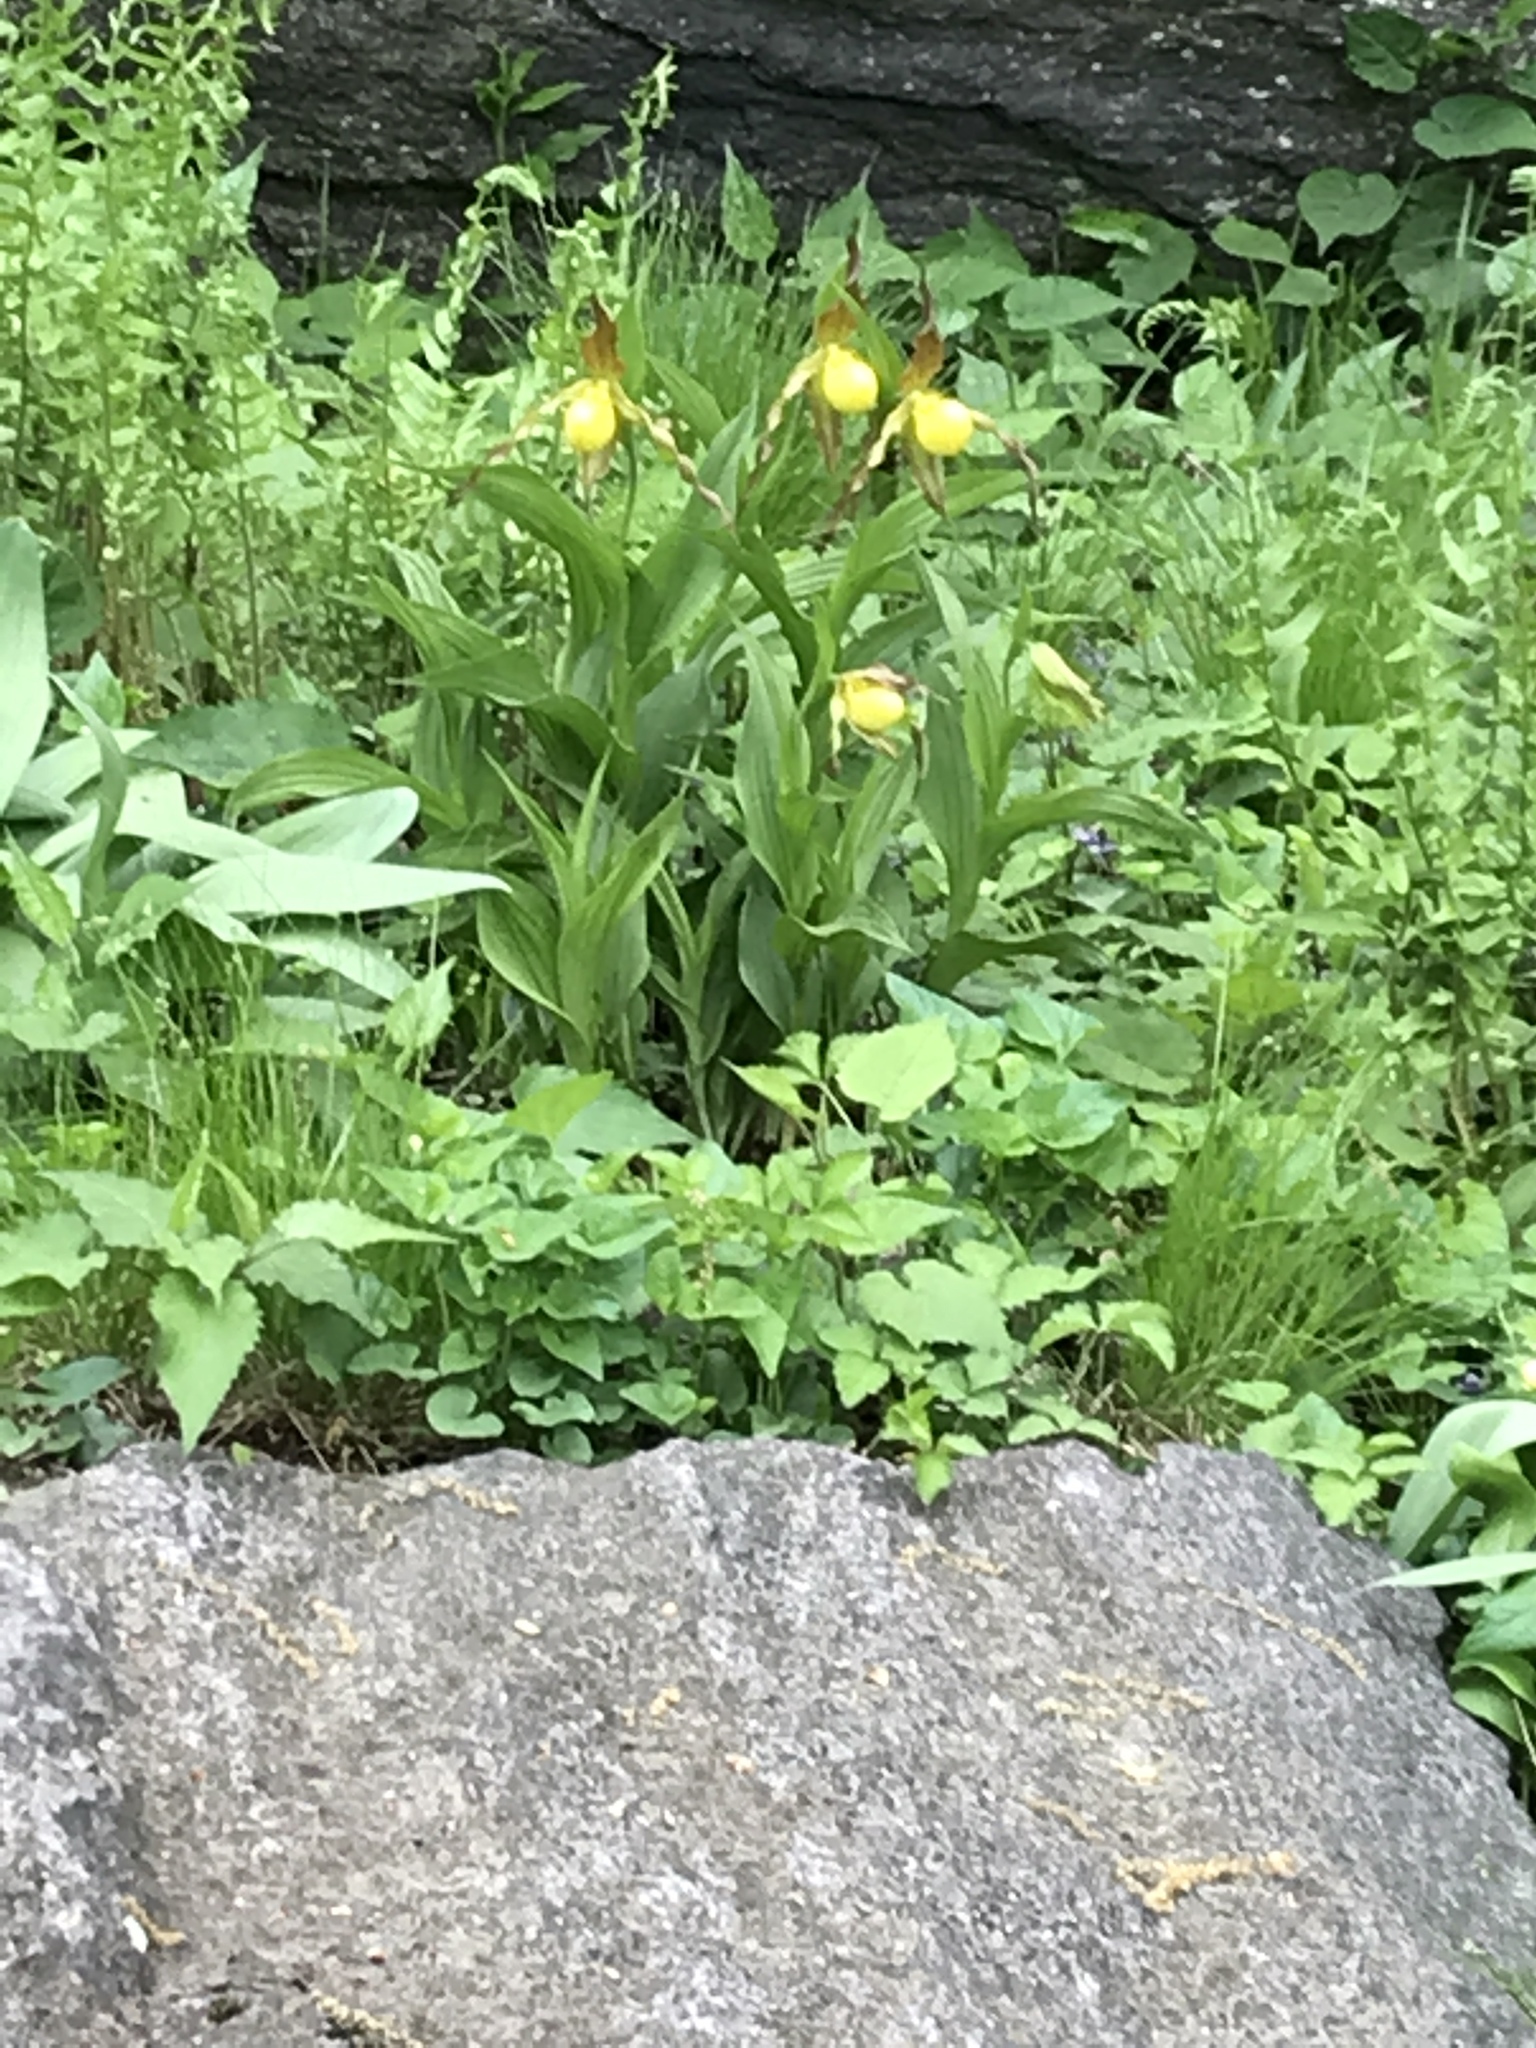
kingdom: Plantae
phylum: Tracheophyta
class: Liliopsida
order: Asparagales
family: Orchidaceae
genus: Cypripedium
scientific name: Cypripedium parviflorum
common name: American yellow lady's-slipper
